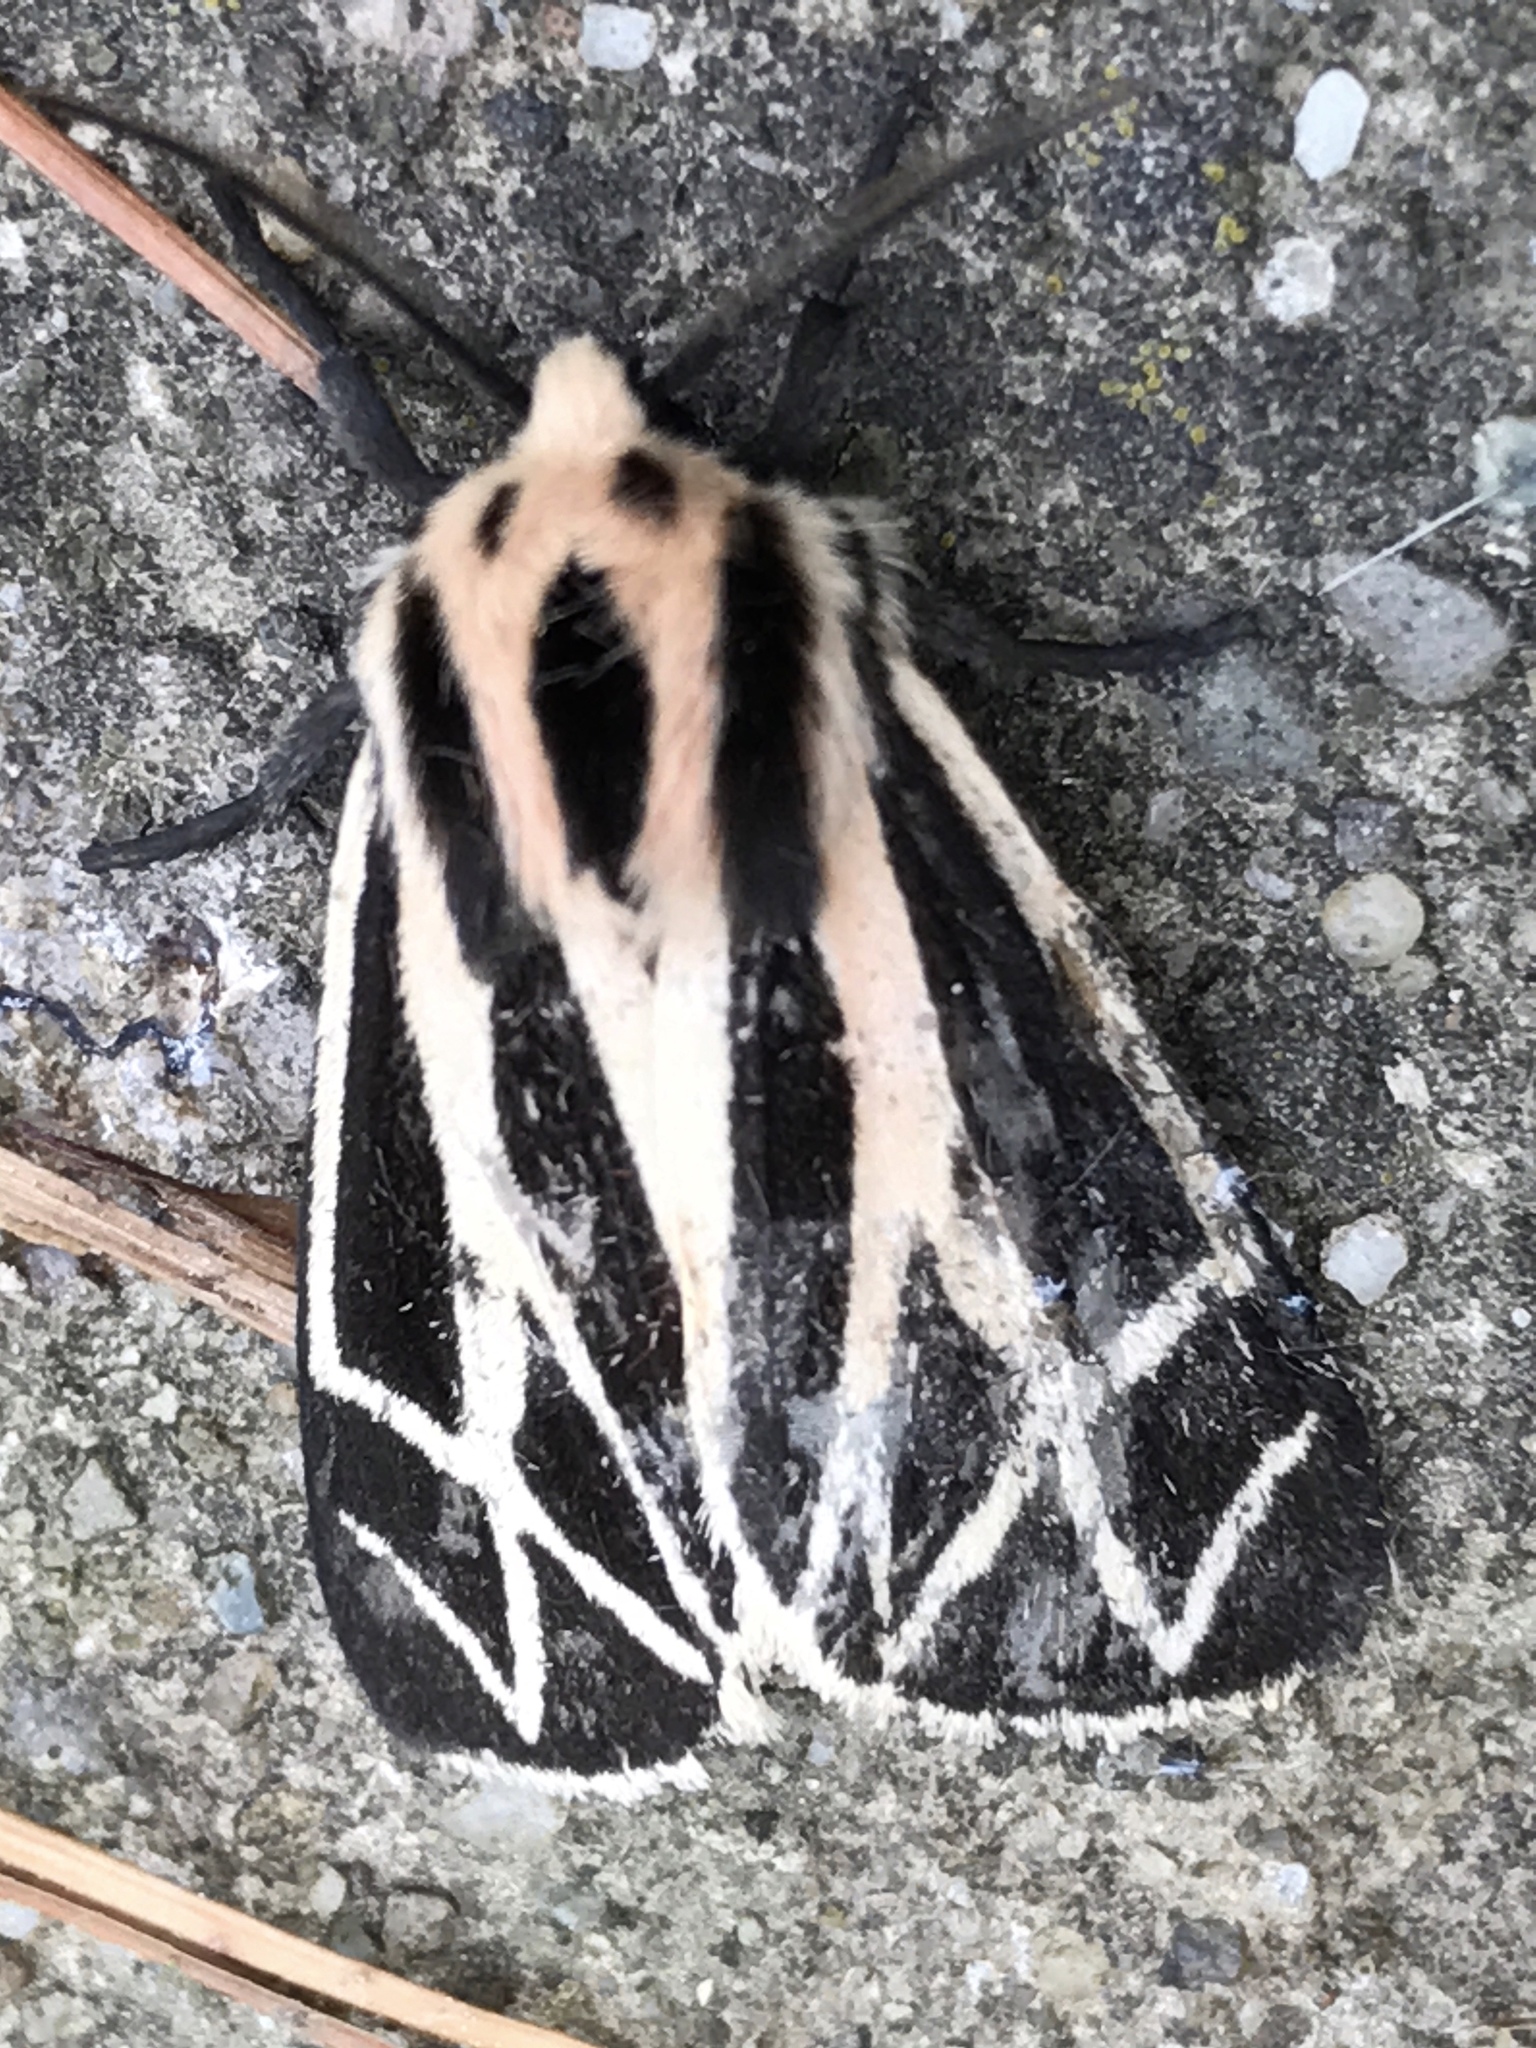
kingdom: Animalia
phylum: Arthropoda
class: Insecta
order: Lepidoptera
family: Erebidae
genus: Apantesis
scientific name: Apantesis phalerata
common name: Harnessed tiger moth
